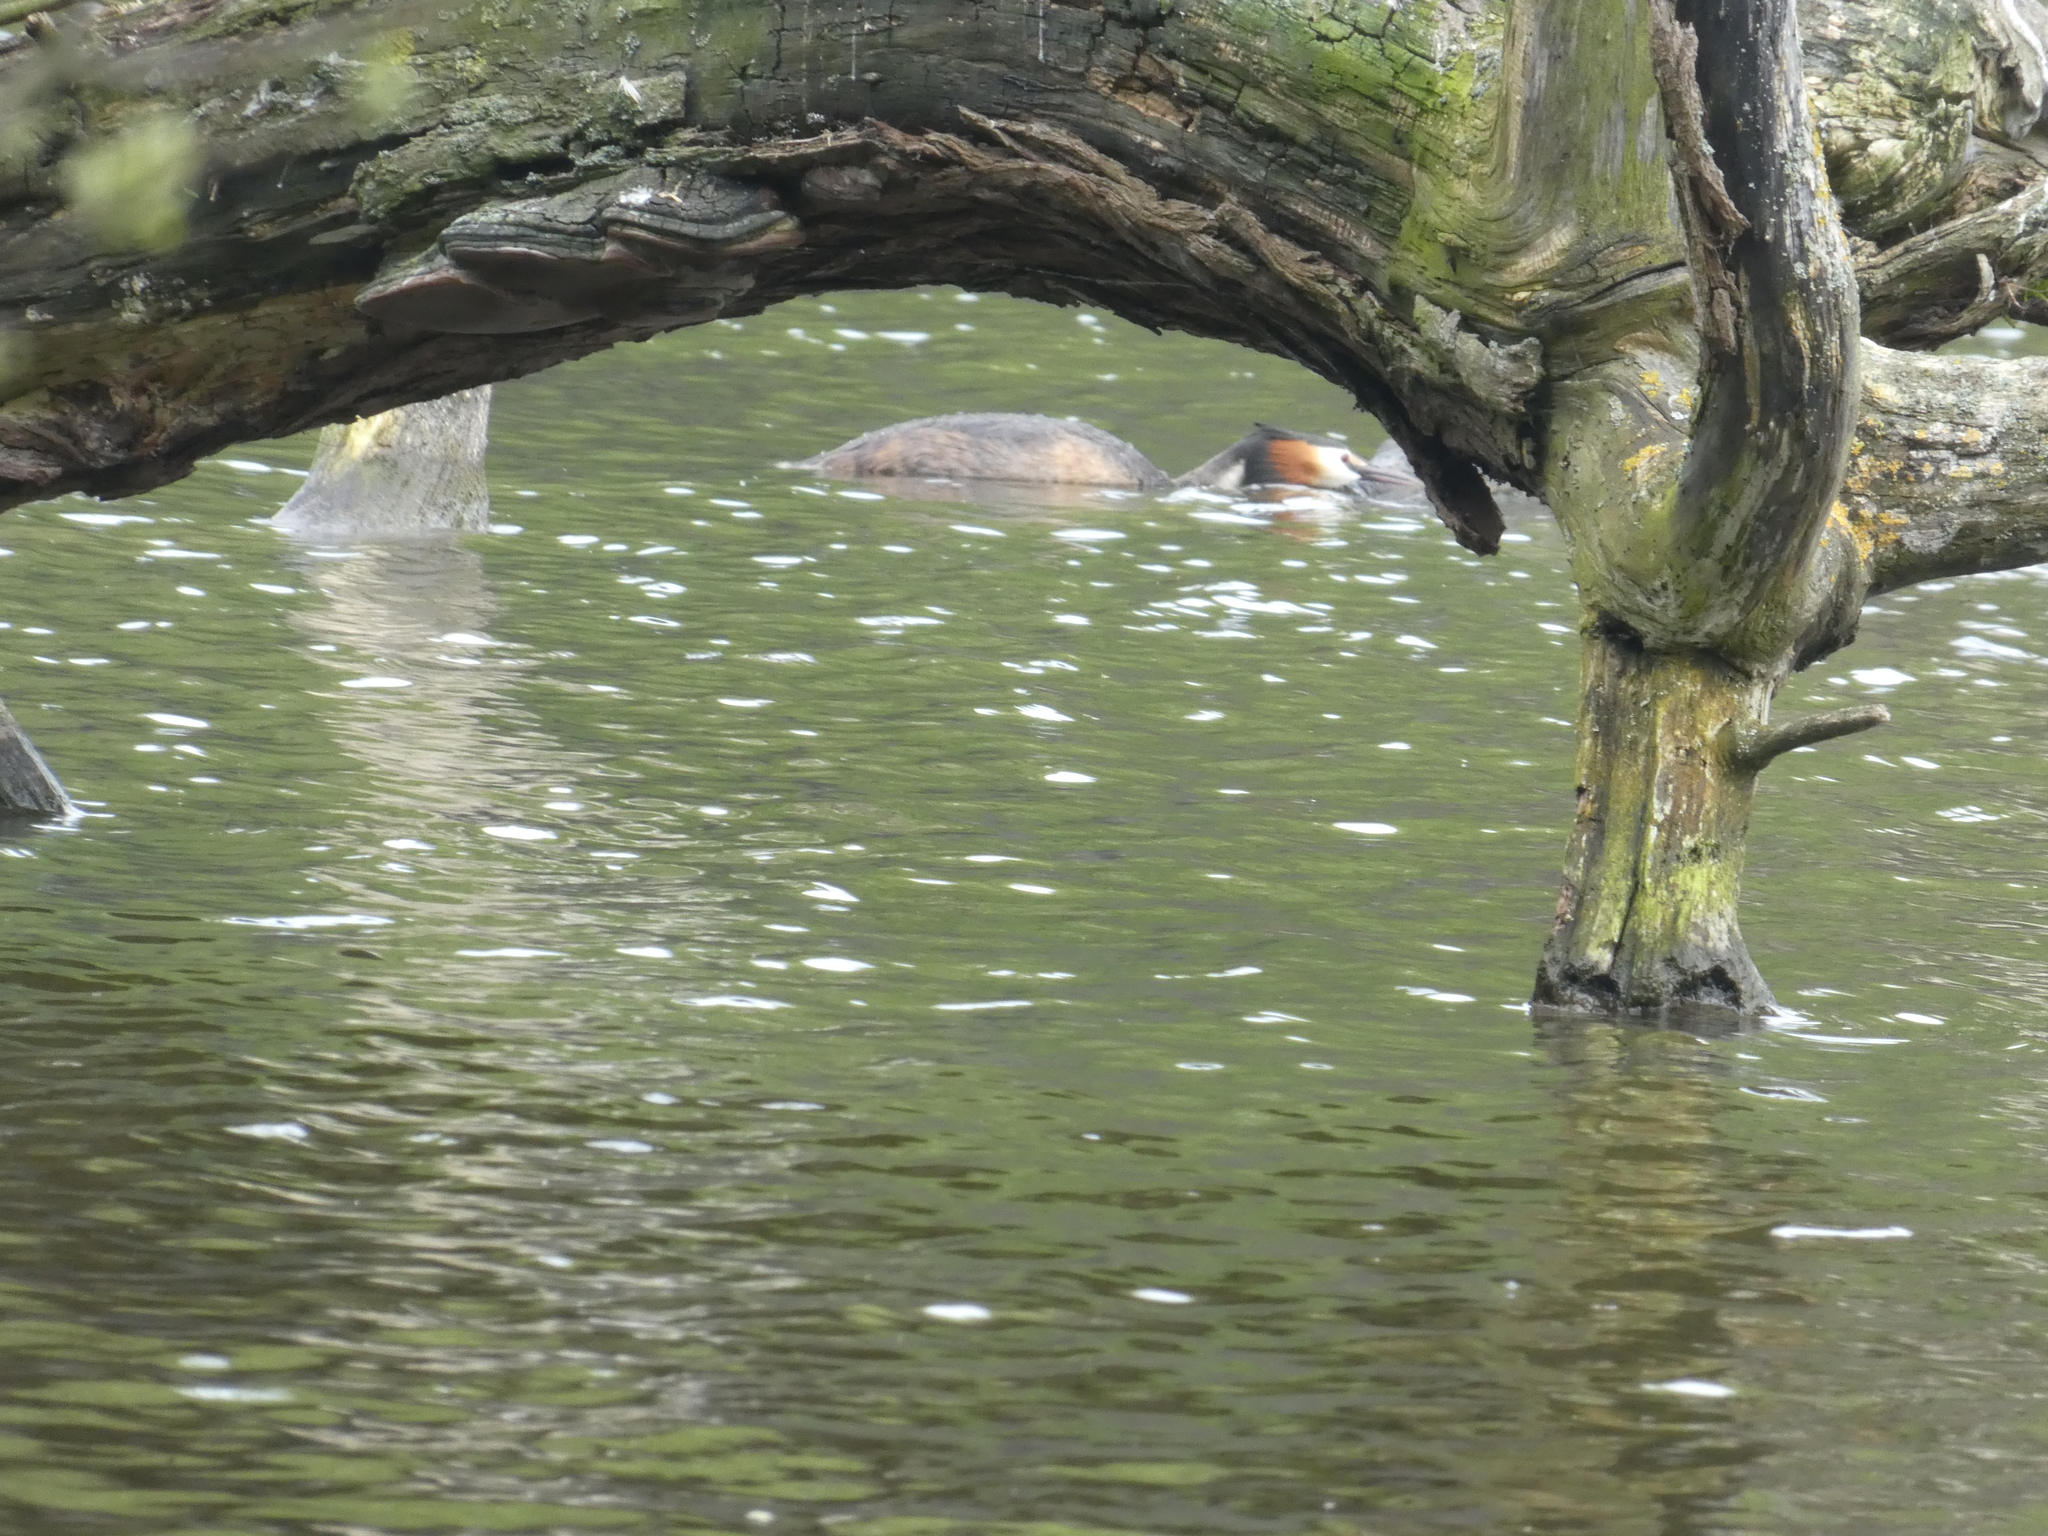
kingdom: Animalia
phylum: Chordata
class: Aves
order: Podicipediformes
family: Podicipedidae
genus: Podiceps
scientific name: Podiceps cristatus
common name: Great crested grebe
